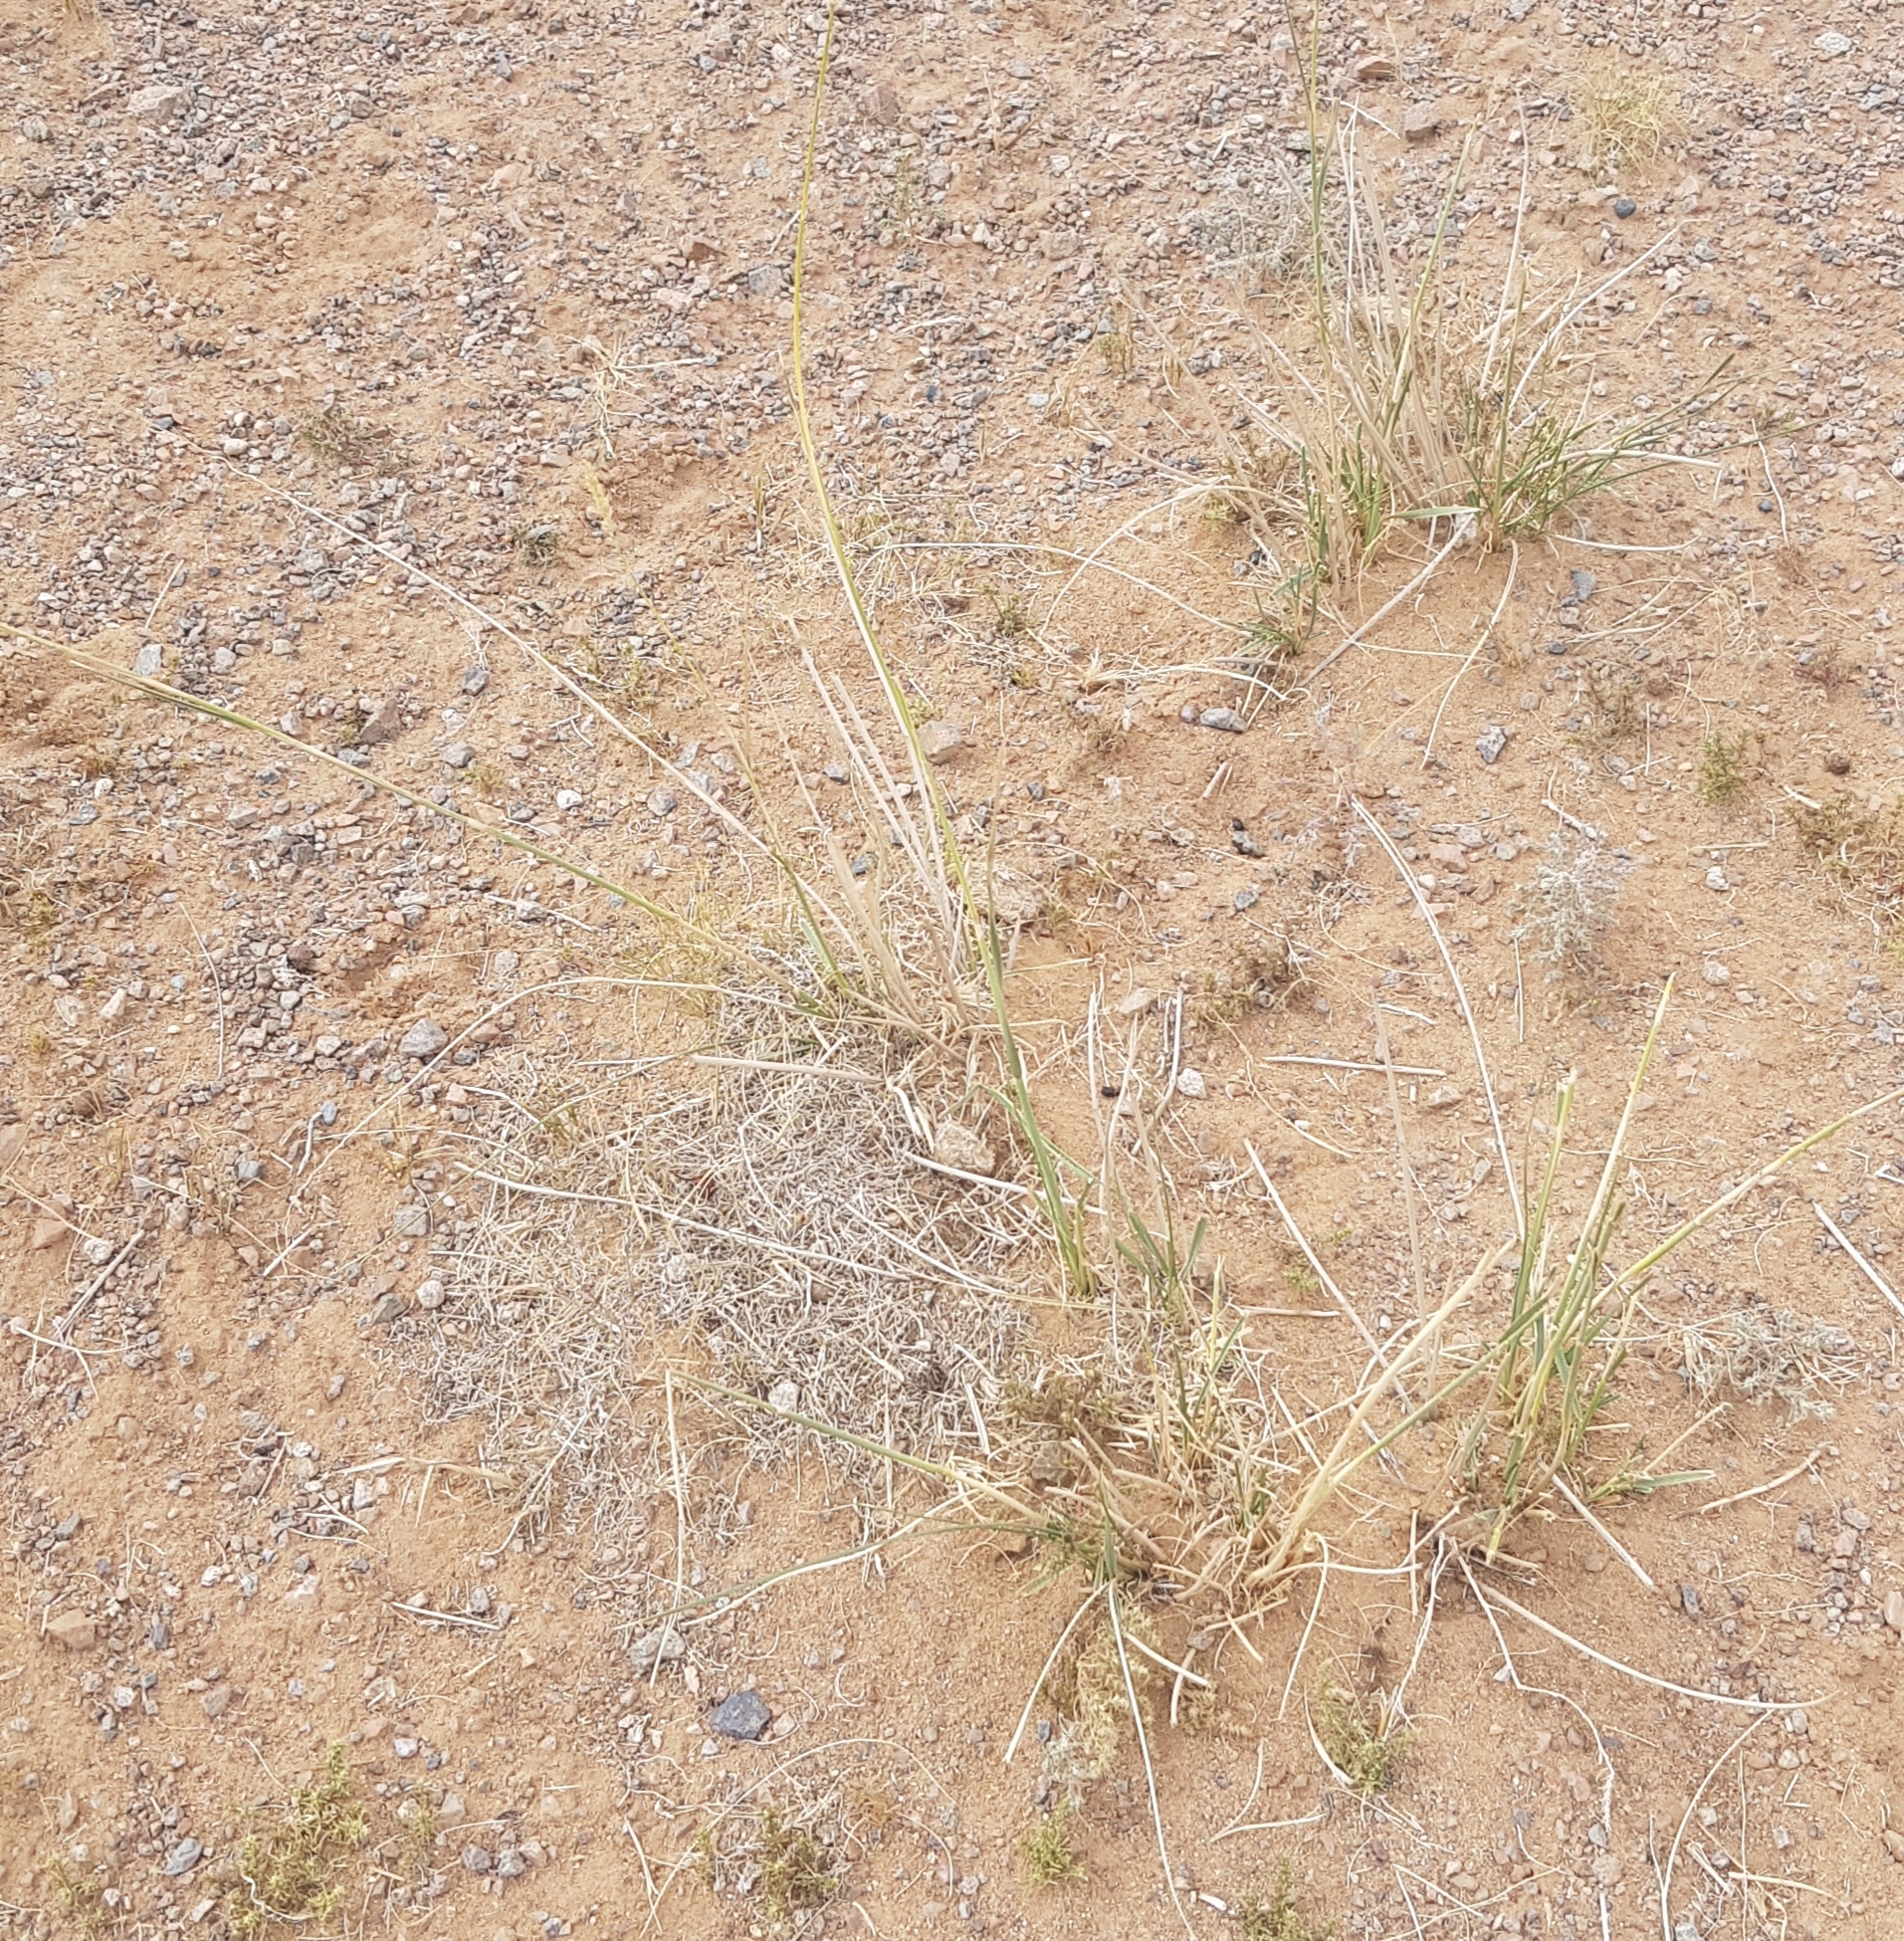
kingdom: Plantae
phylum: Tracheophyta
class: Liliopsida
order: Poales
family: Poaceae
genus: Neotrinia
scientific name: Neotrinia splendens
